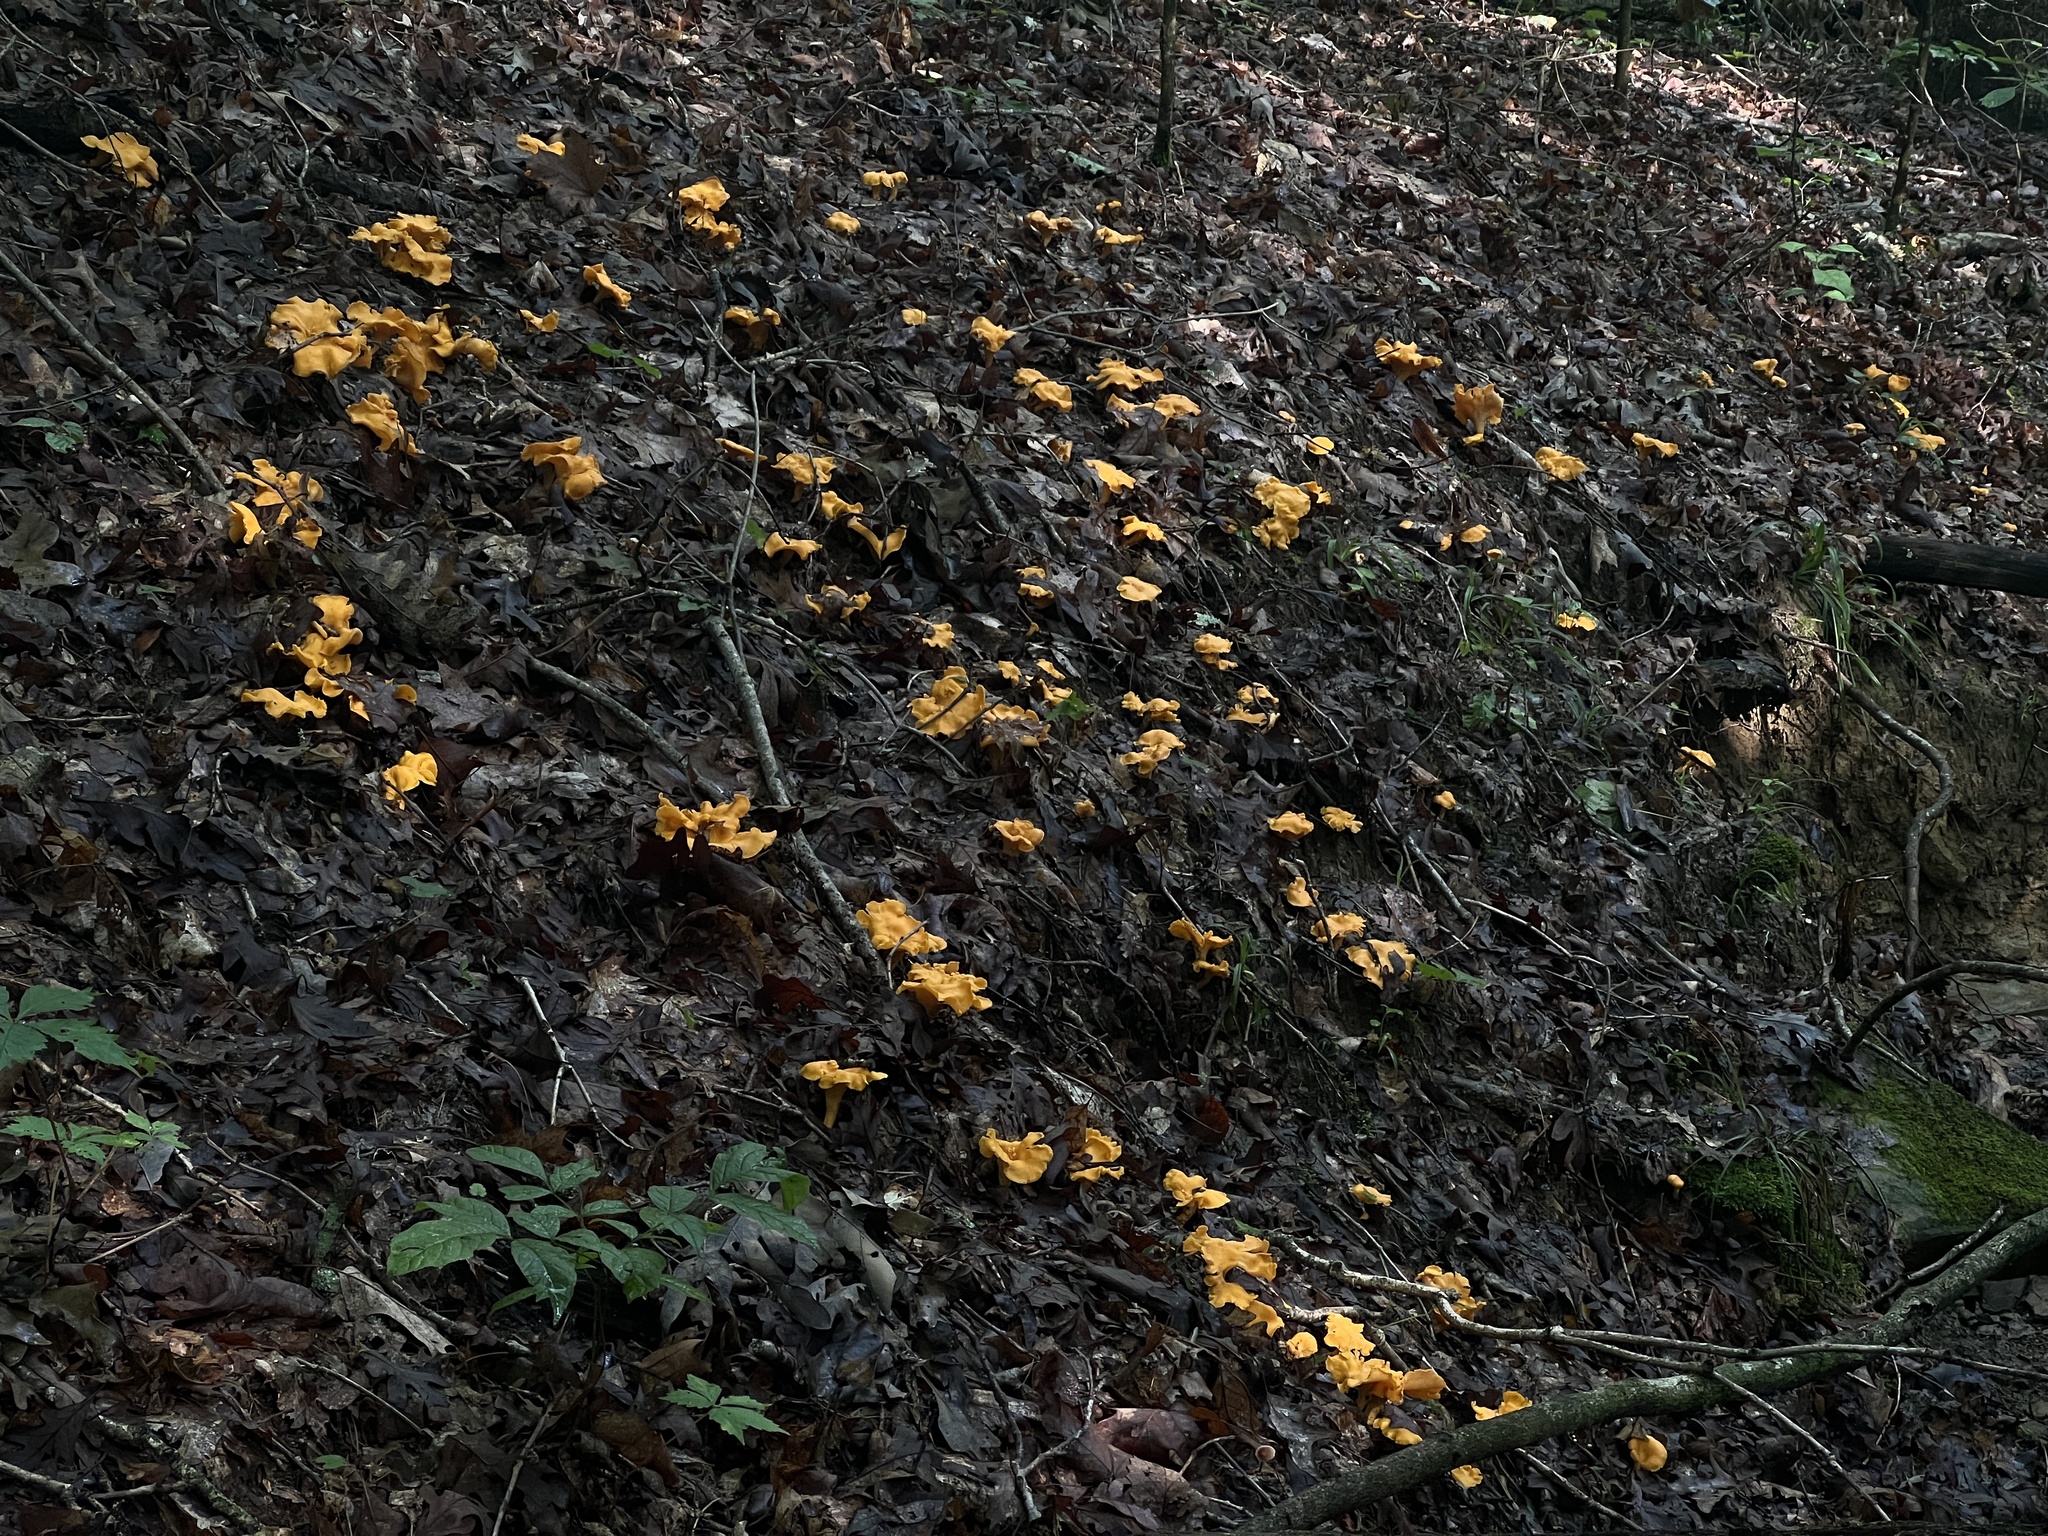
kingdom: Fungi
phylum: Basidiomycota
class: Agaricomycetes
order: Cantharellales
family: Hydnaceae
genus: Cantharellus
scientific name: Cantharellus flavolateritius
